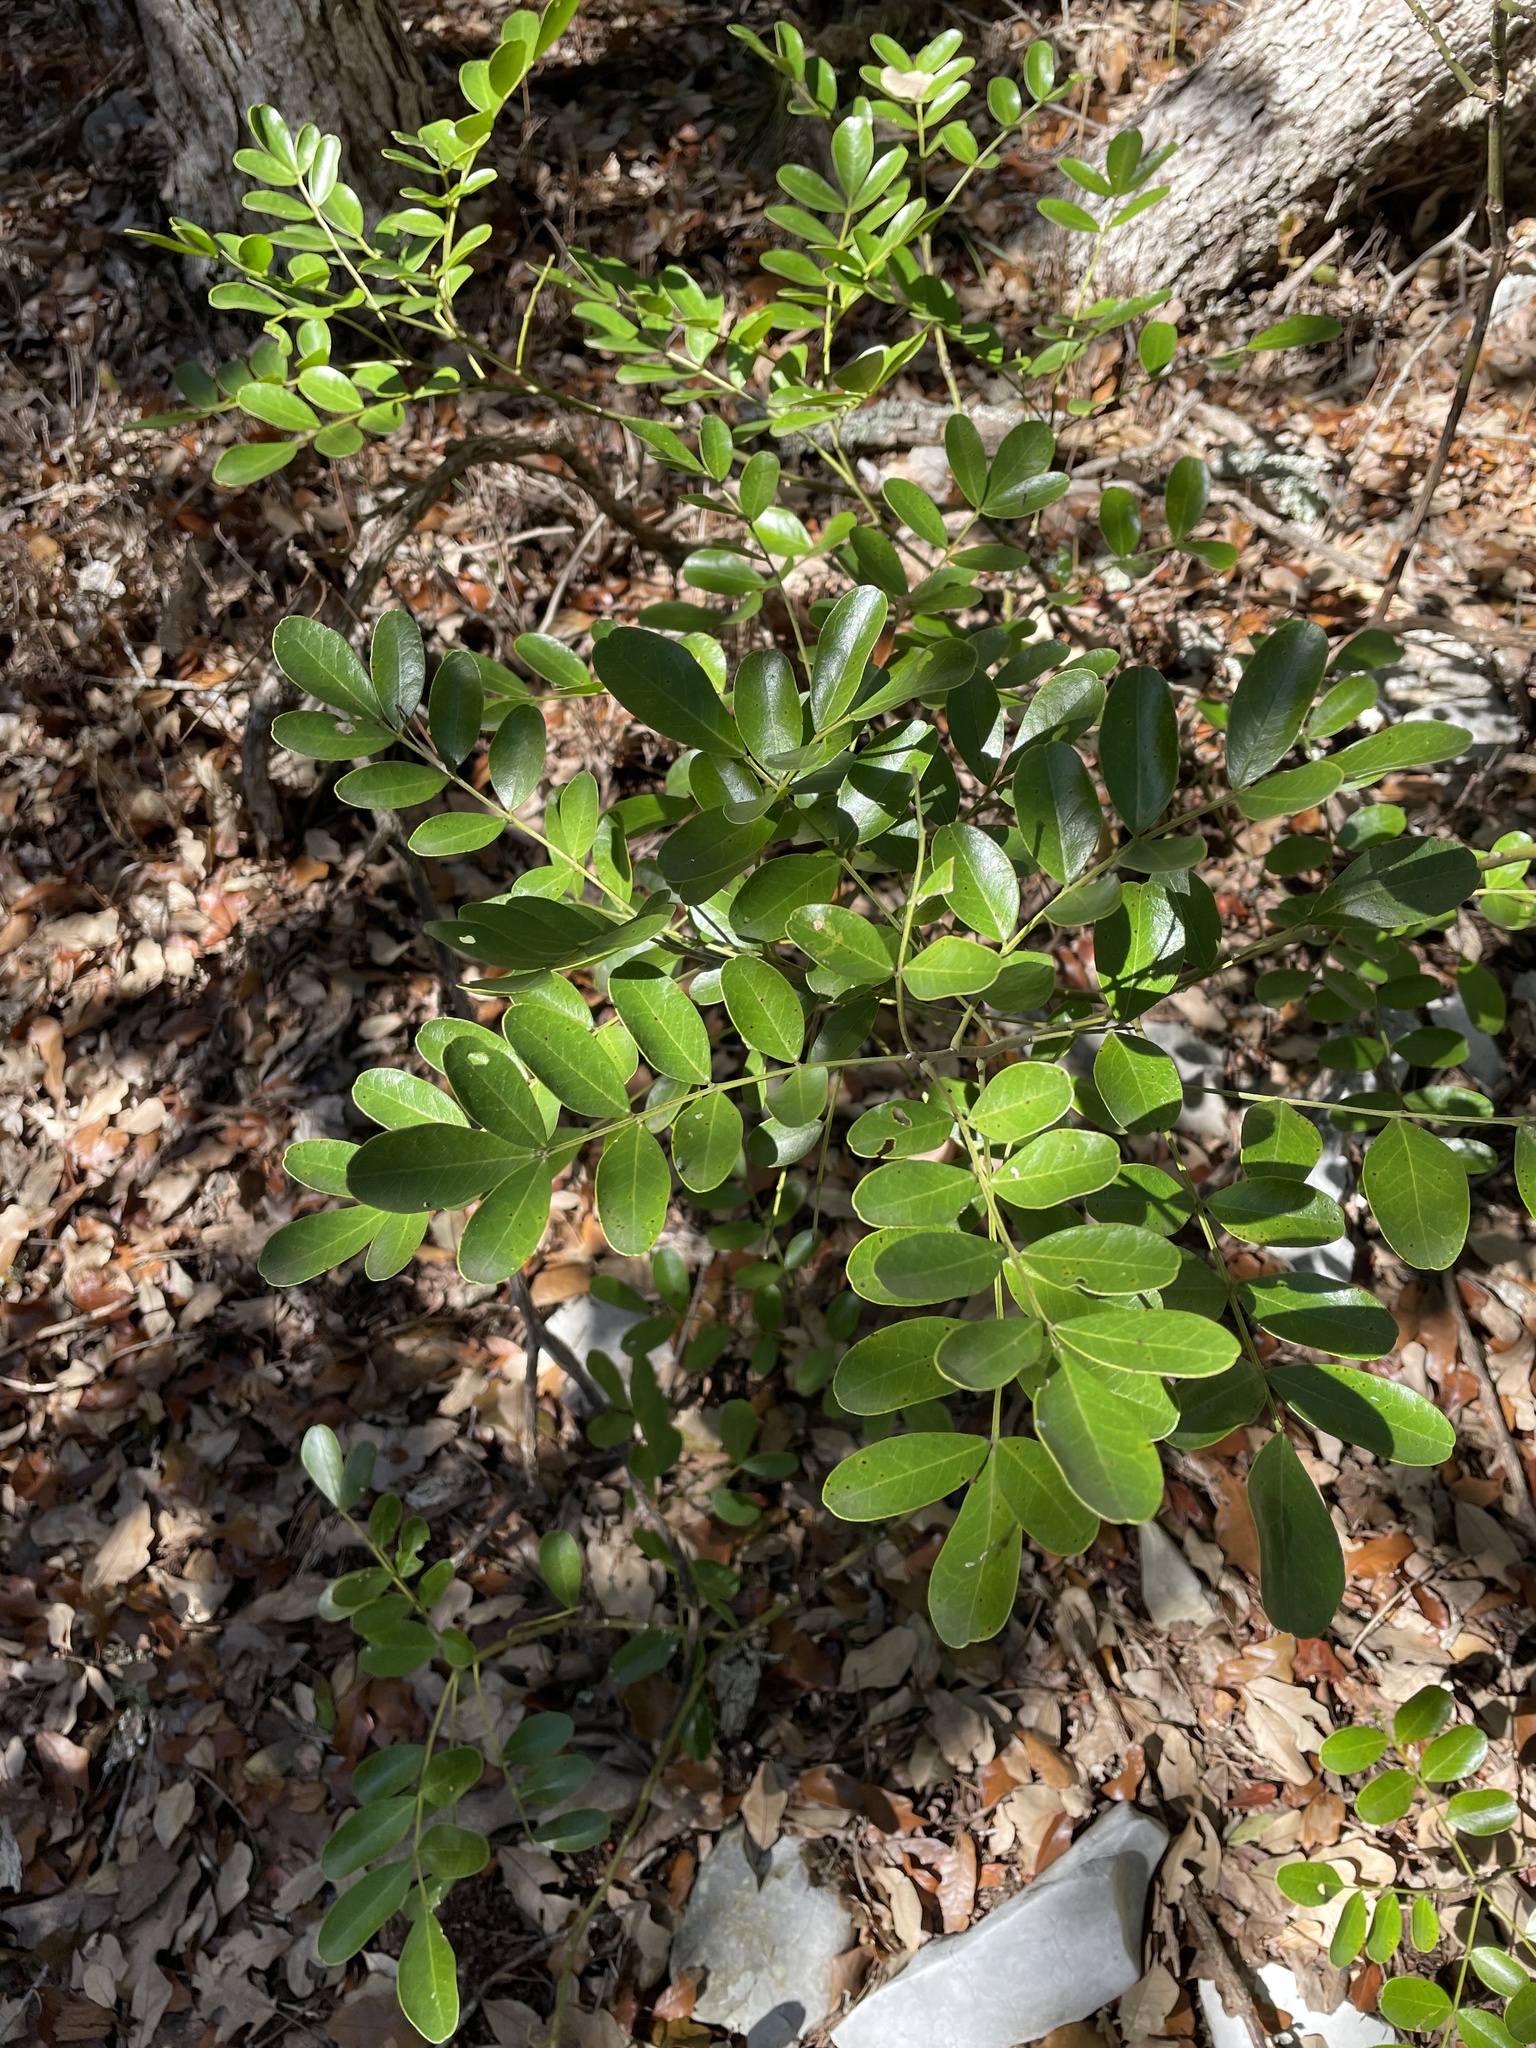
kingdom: Plantae
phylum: Tracheophyta
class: Magnoliopsida
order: Fabales
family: Fabaceae
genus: Dermatophyllum
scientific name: Dermatophyllum secundiflorum
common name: Texas-mountain-laurel
